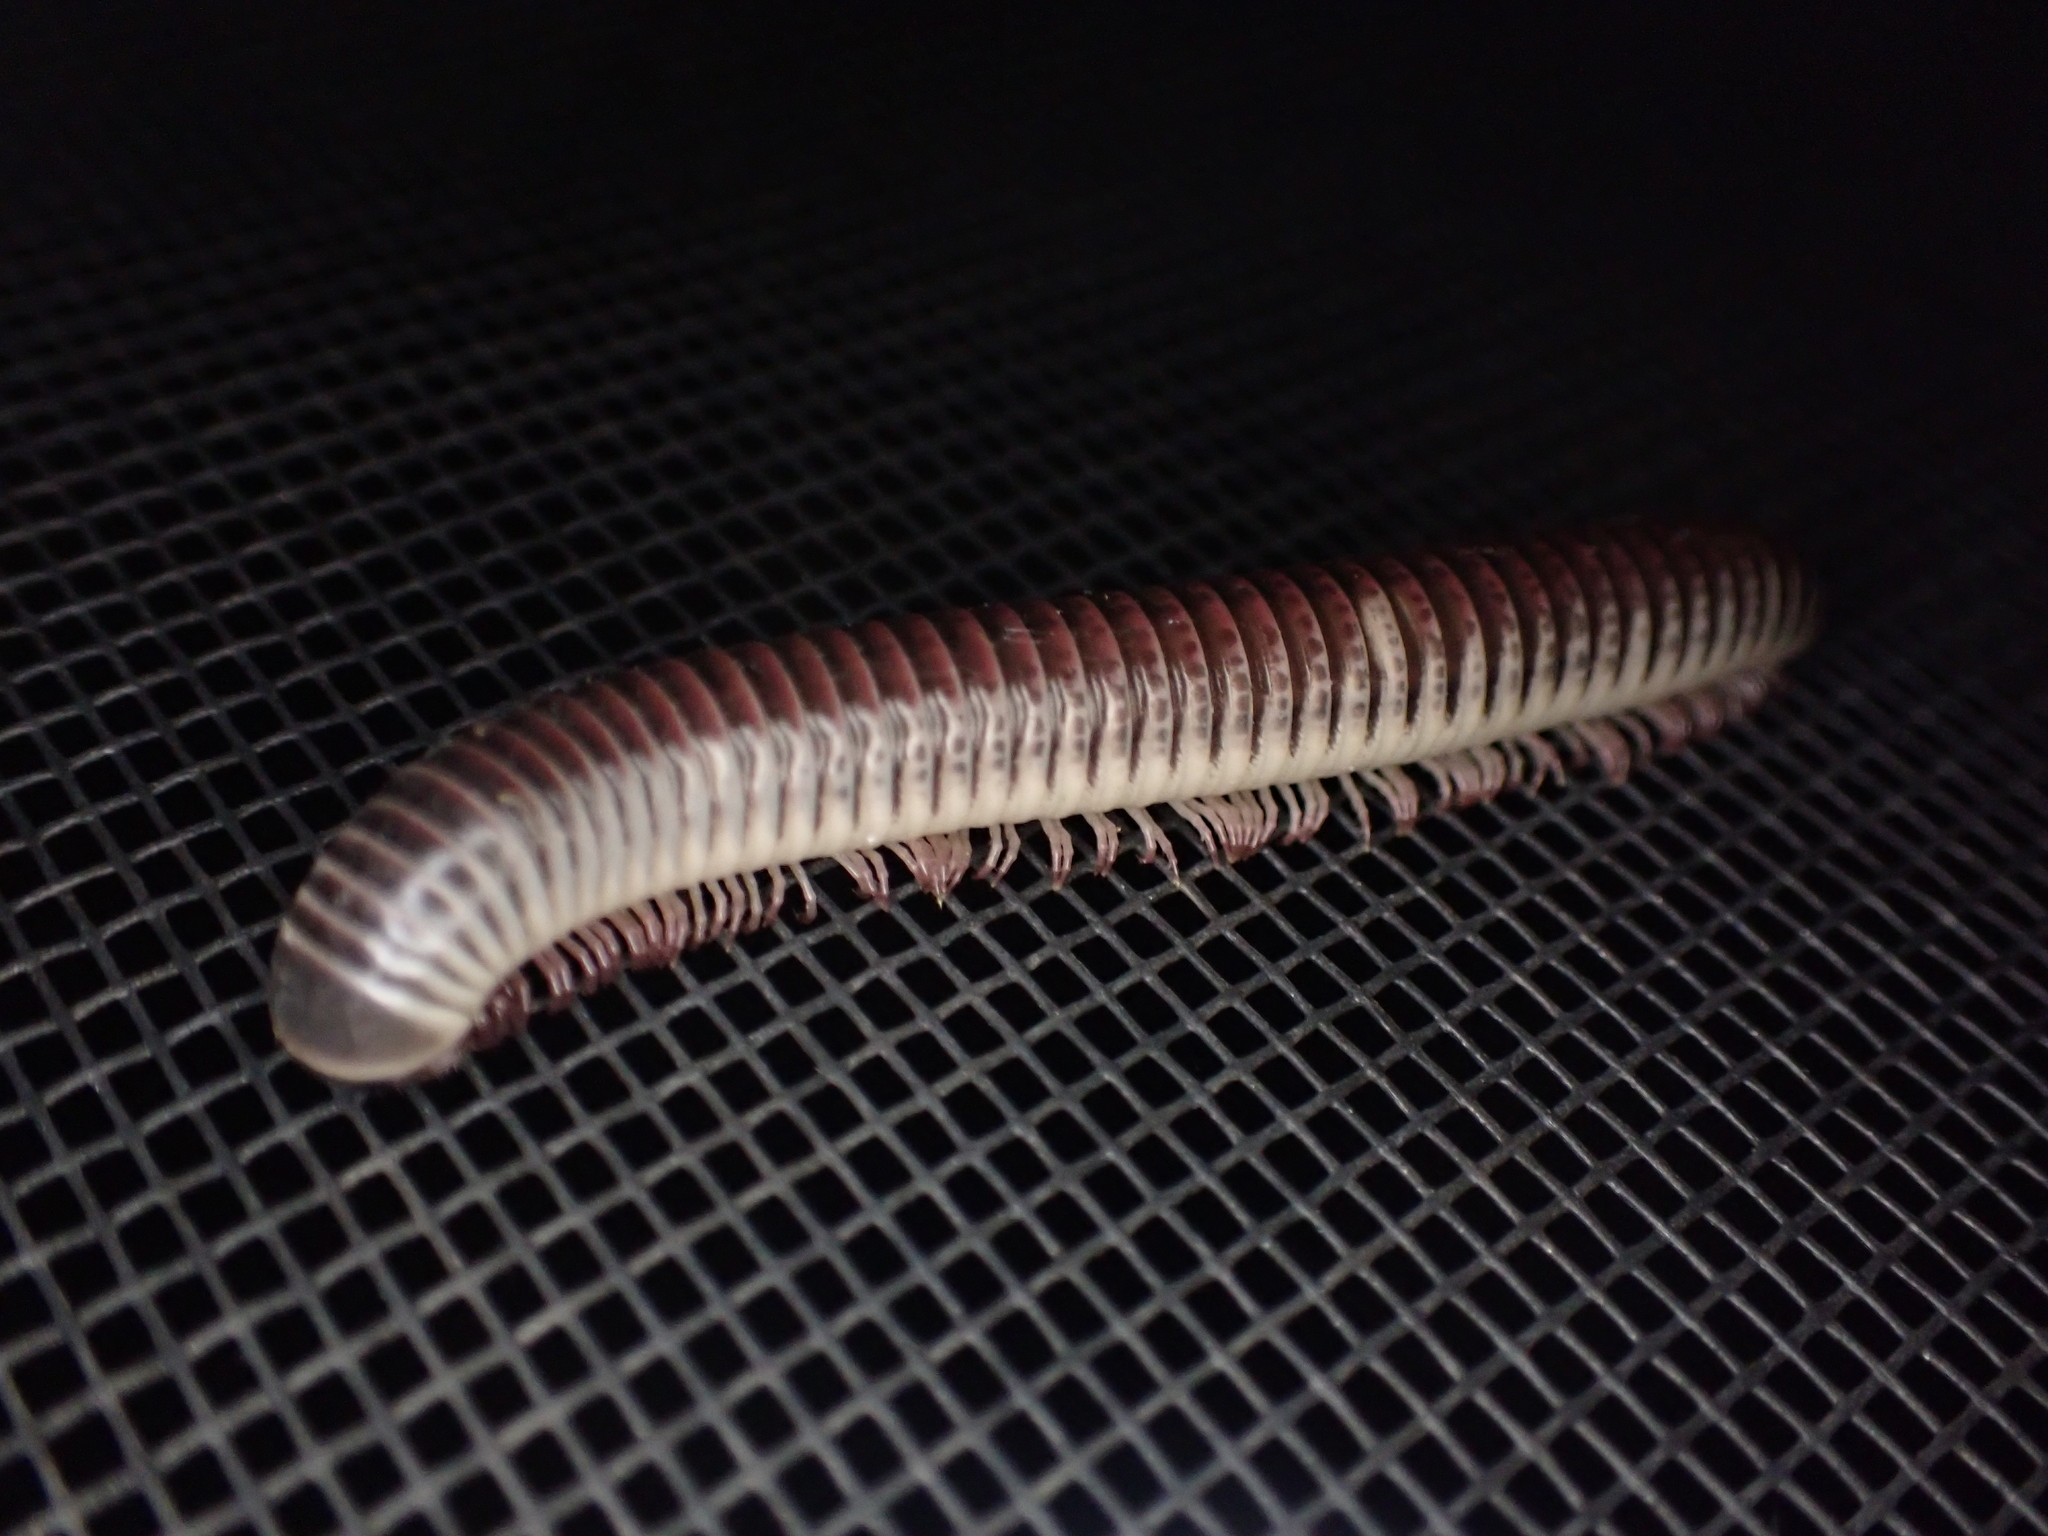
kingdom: Animalia
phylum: Arthropoda
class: Diplopoda
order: Spirobolida
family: Spirobolidae
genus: Chicobolus
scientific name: Chicobolus spinigerus
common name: Florida ivory millipede
